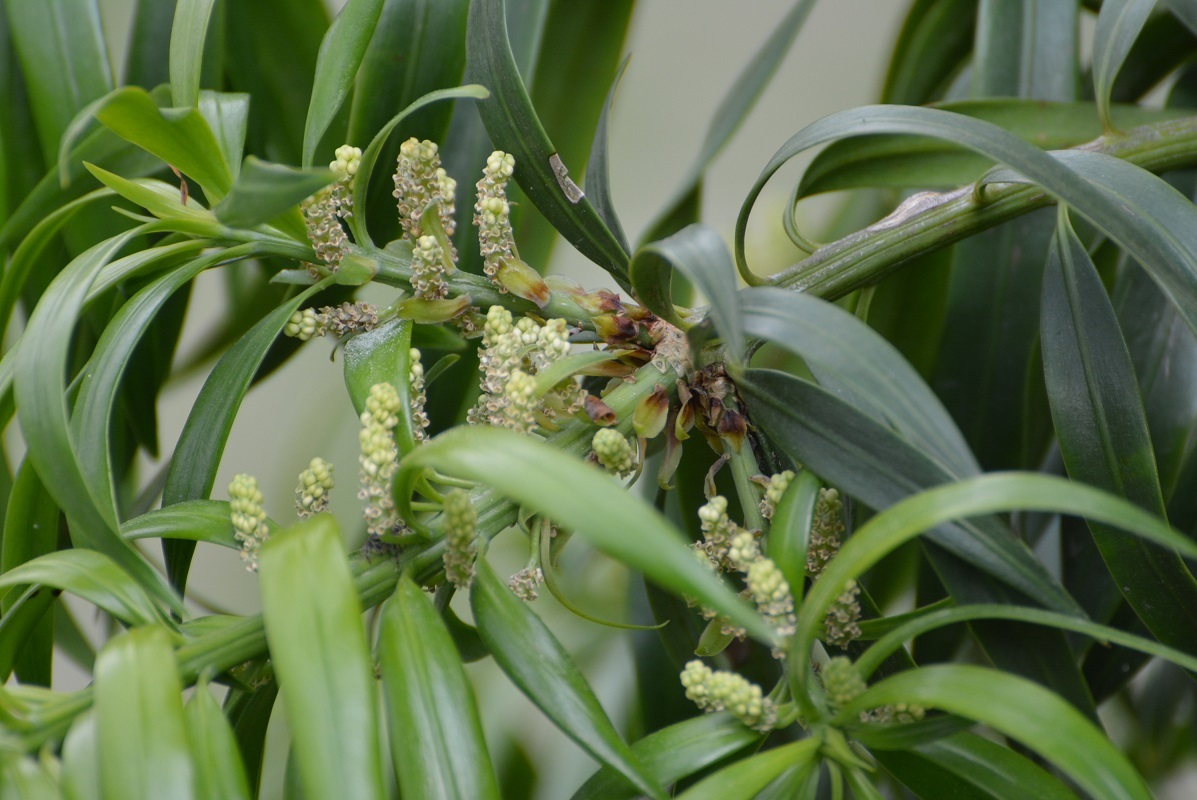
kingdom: Plantae
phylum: Tracheophyta
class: Pinopsida
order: Pinales
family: Podocarpaceae
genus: Podocarpus
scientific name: Podocarpus matudae
